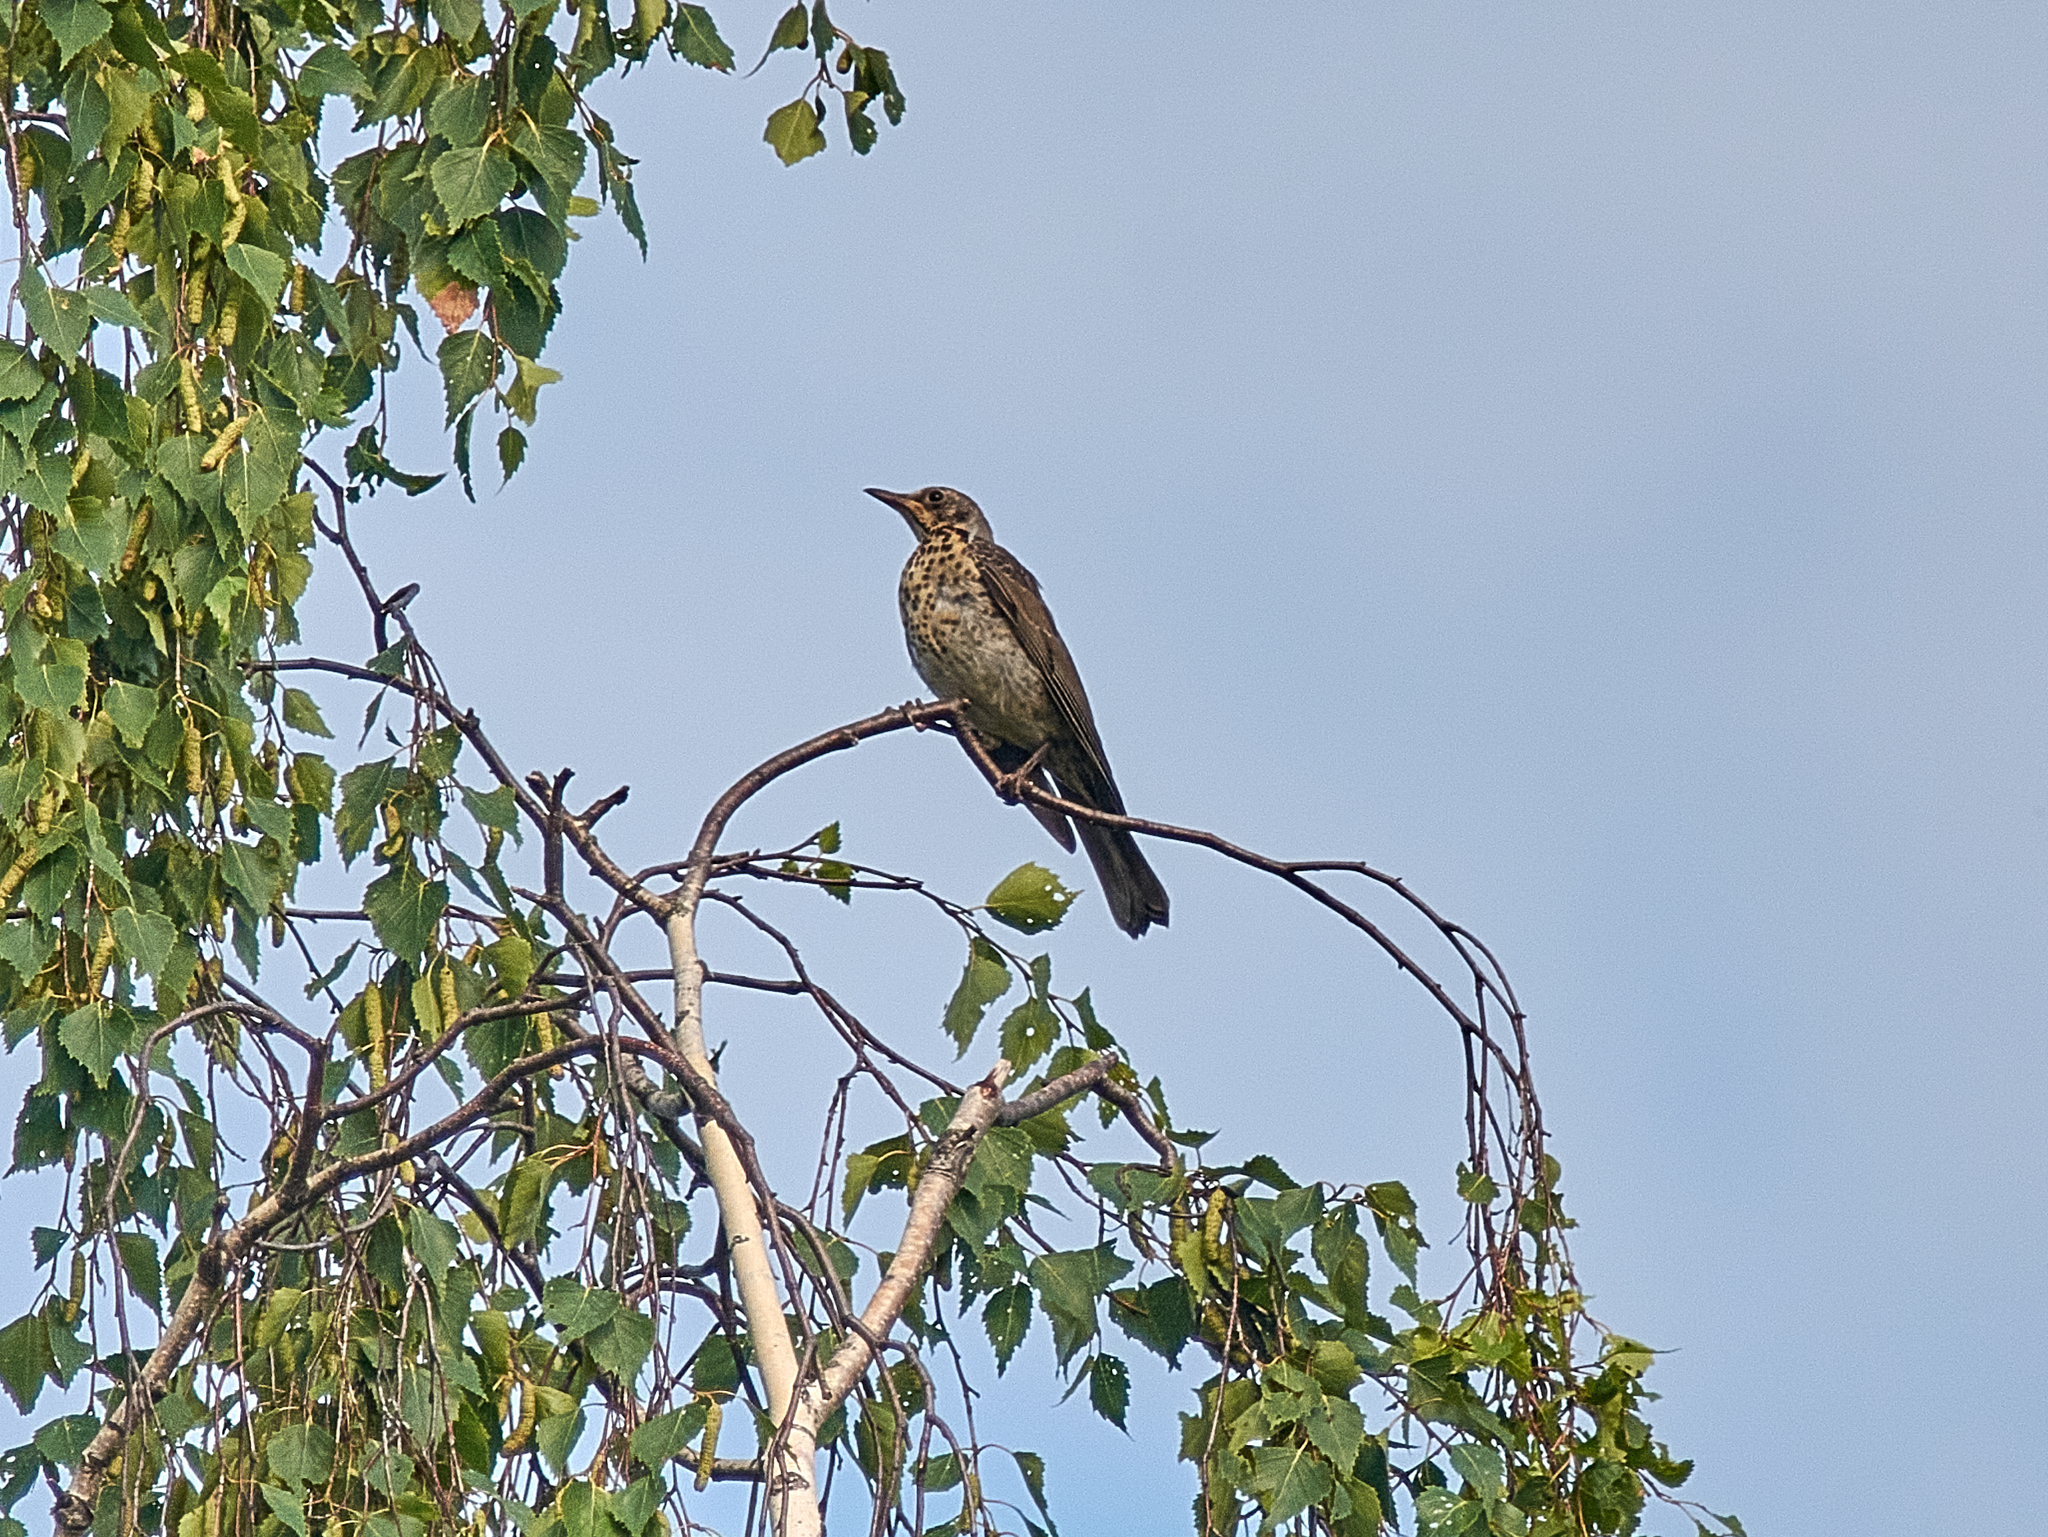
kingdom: Animalia
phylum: Chordata
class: Aves
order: Passeriformes
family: Turdidae
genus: Turdus
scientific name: Turdus pilaris
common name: Fieldfare
